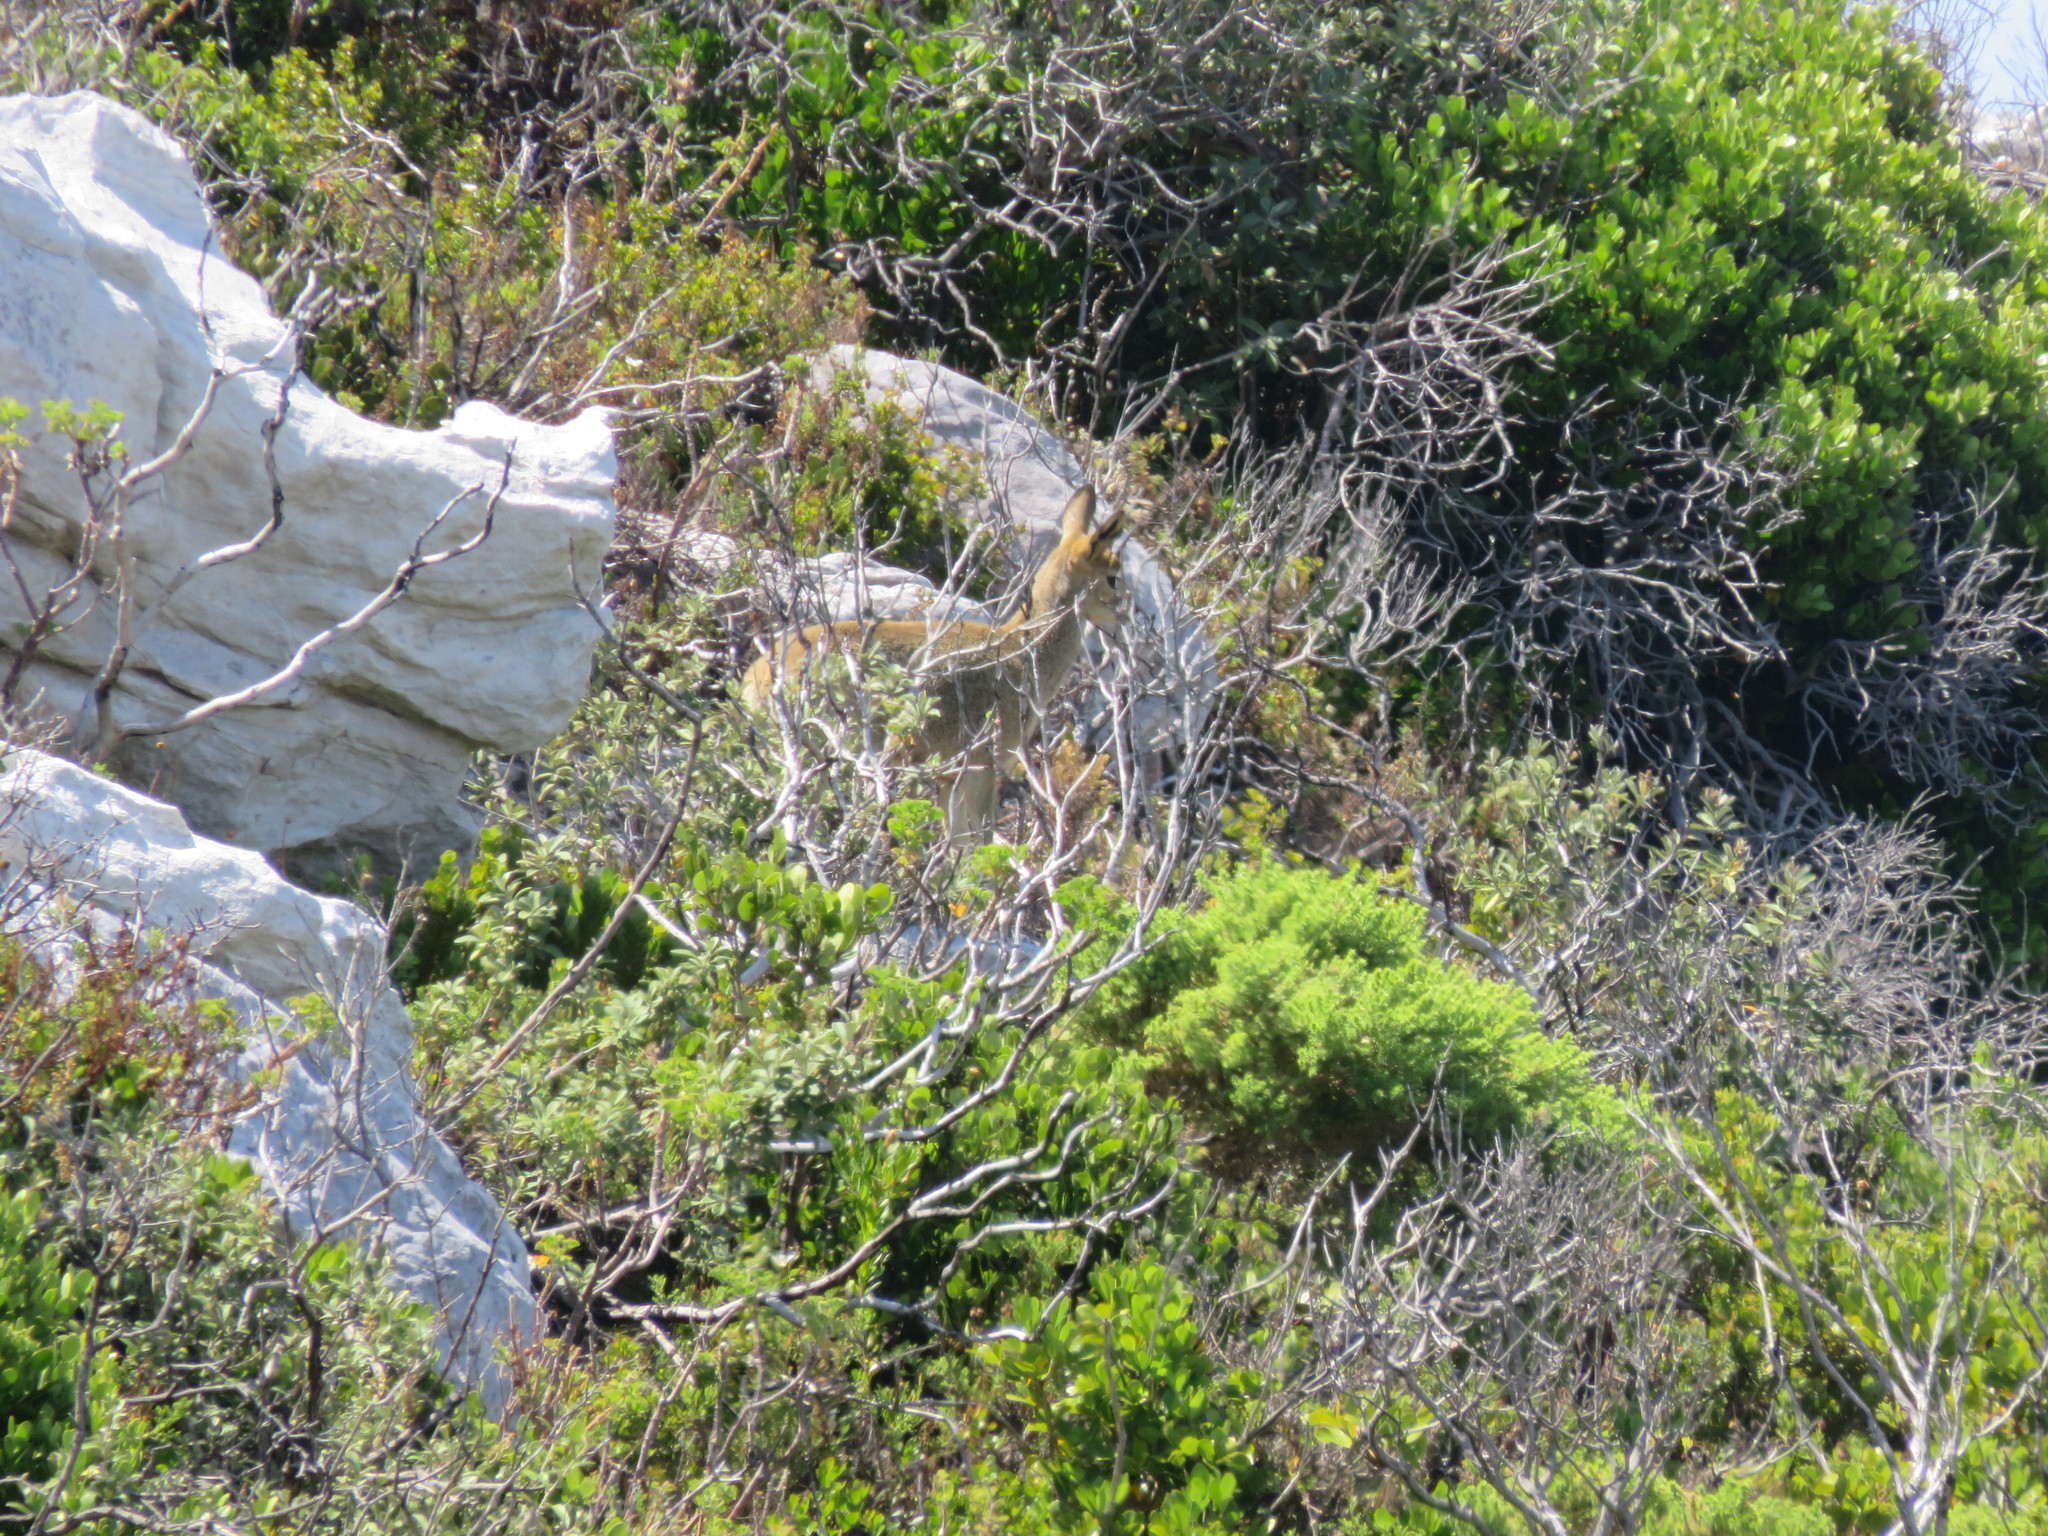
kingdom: Animalia
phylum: Chordata
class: Mammalia
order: Artiodactyla
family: Bovidae
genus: Oreotragus
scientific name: Oreotragus oreotragus
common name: Klipspringer
